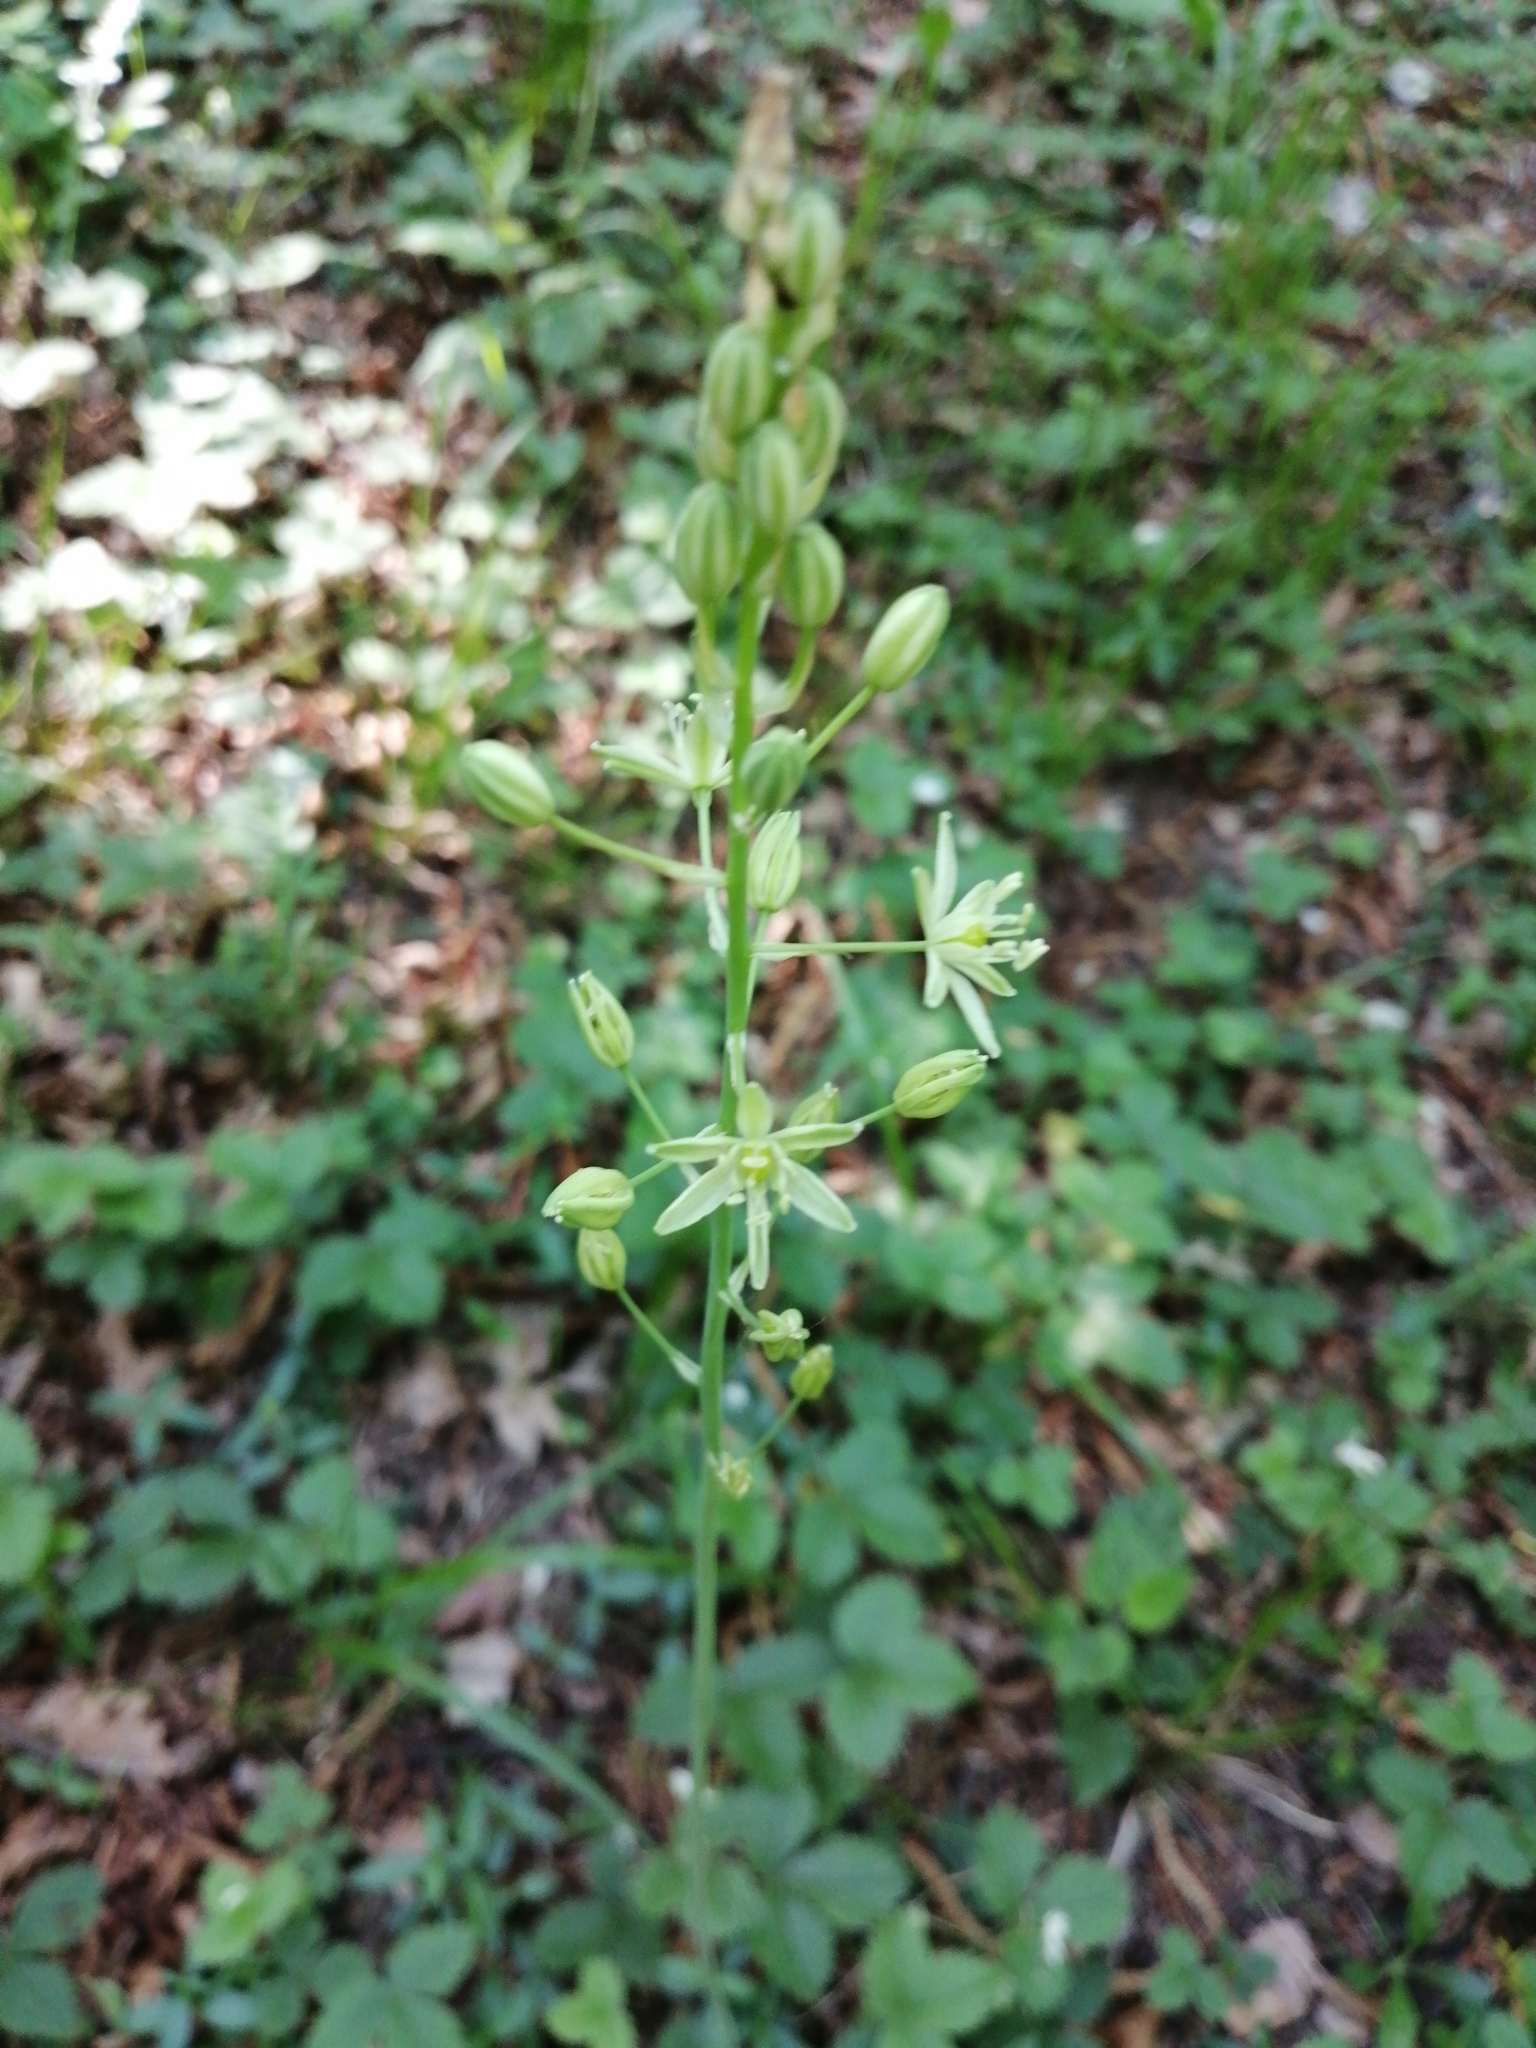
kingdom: Plantae
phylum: Tracheophyta
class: Liliopsida
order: Asparagales
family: Asparagaceae
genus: Ornithogalum
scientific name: Ornithogalum pyrenaicum
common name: Spiked star-of-bethlehem
